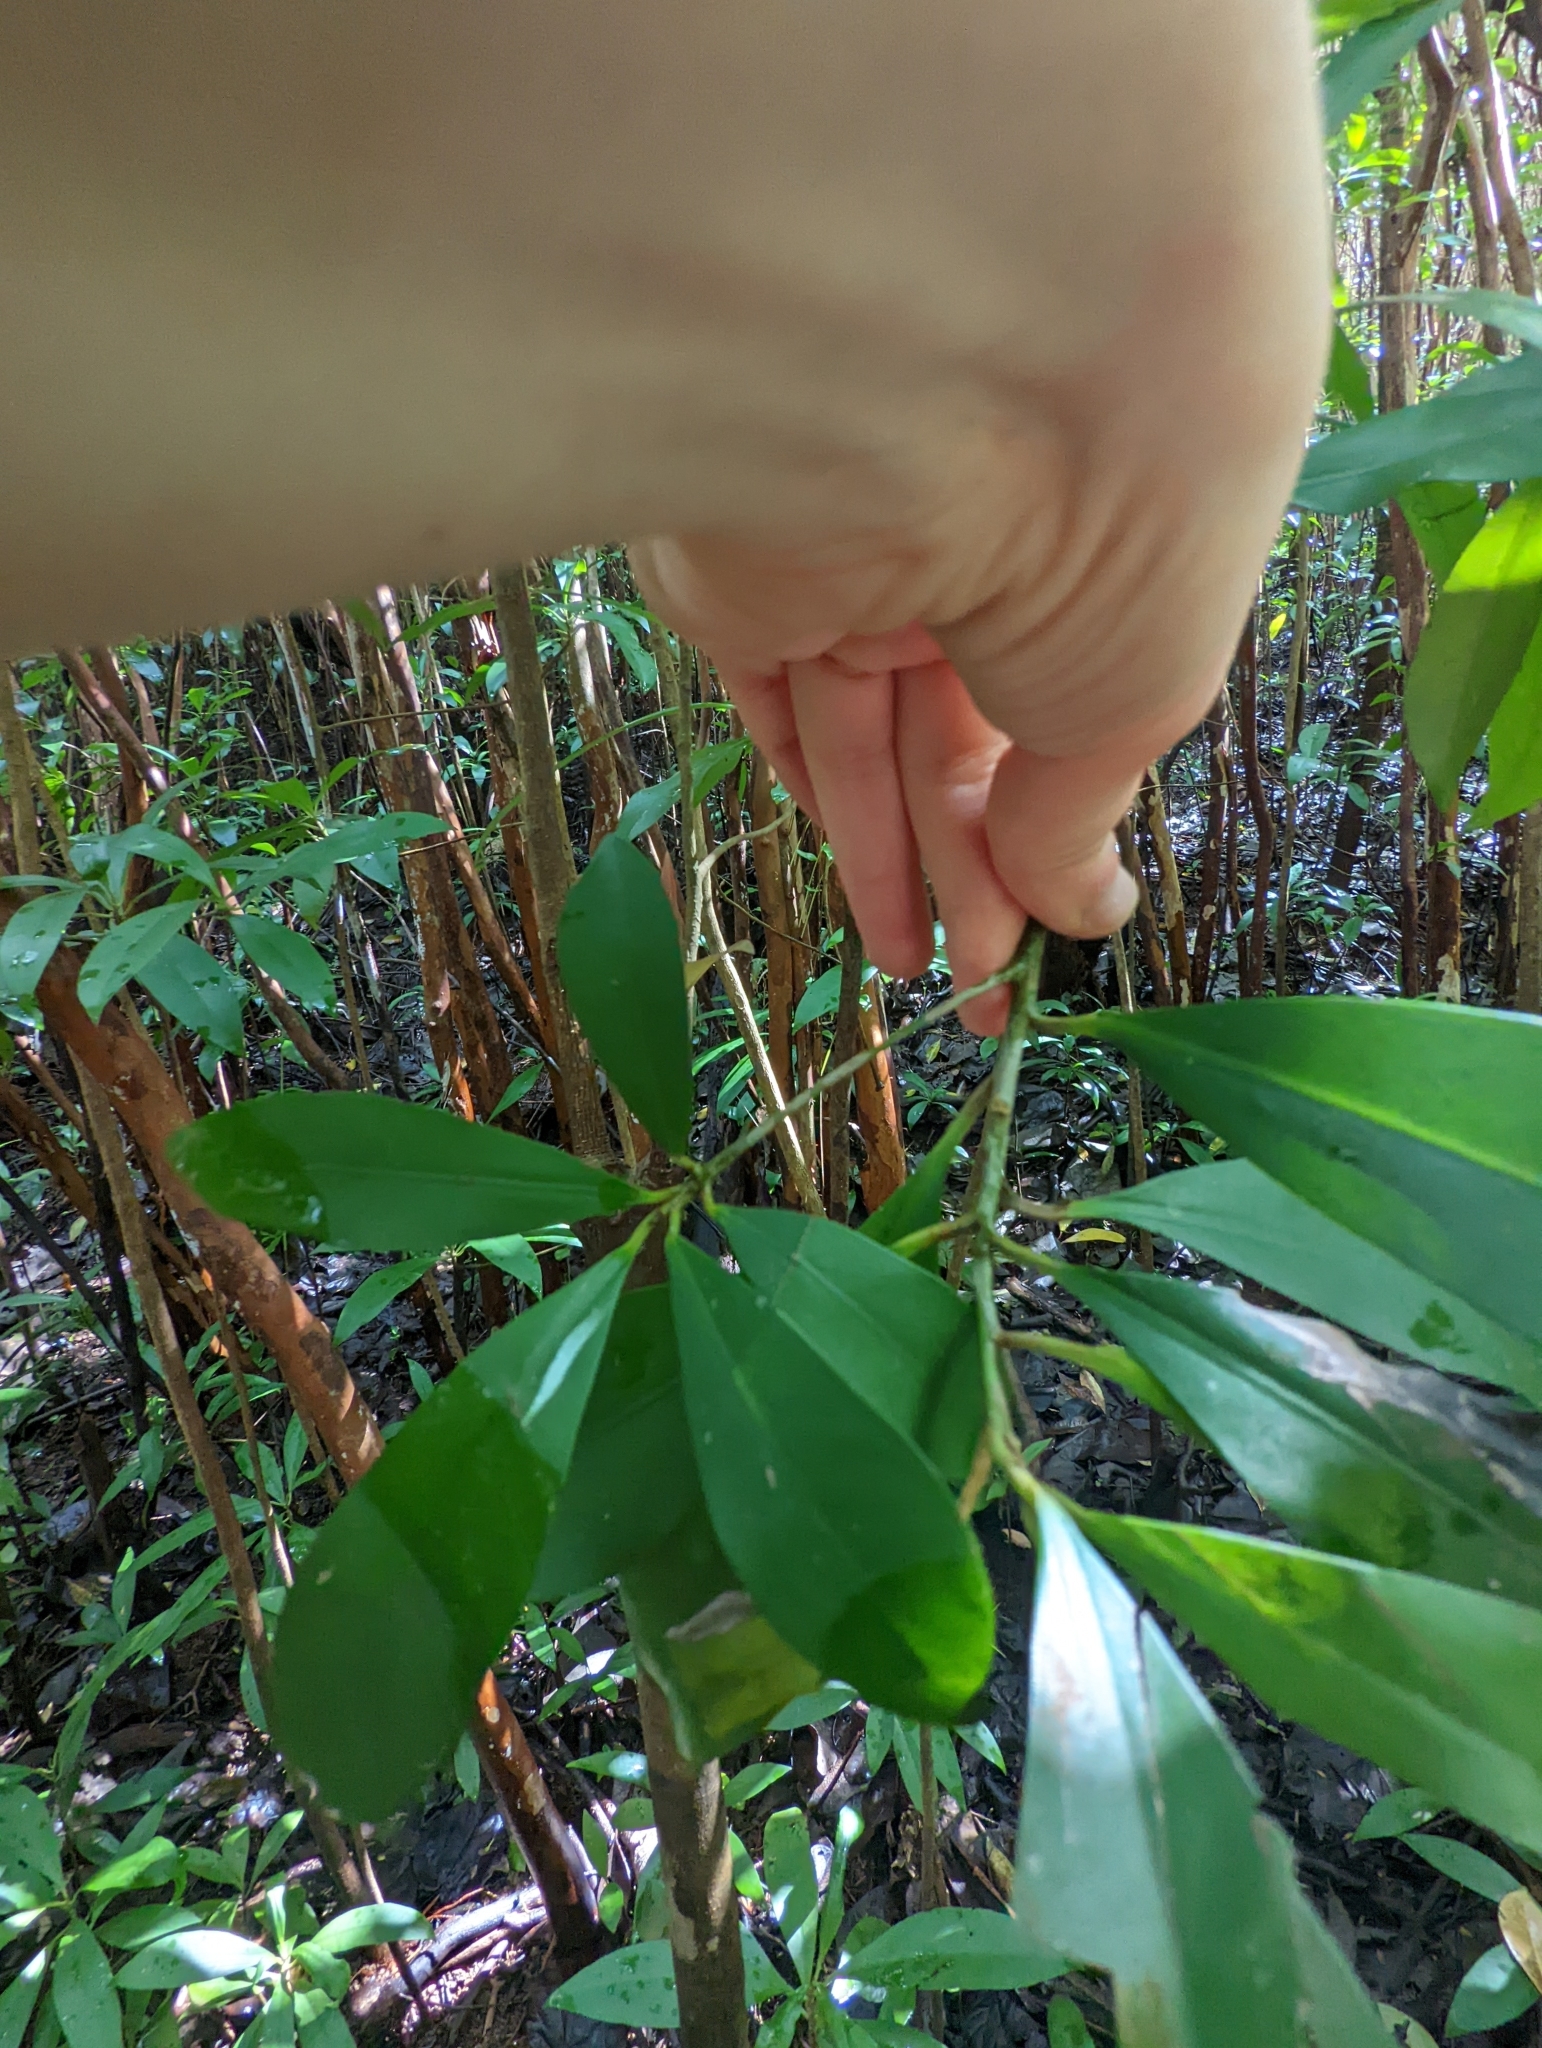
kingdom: Plantae
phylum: Tracheophyta
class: Magnoliopsida
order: Ericales
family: Primulaceae
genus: Ardisia
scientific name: Ardisia elliptica
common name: Shoebutton
